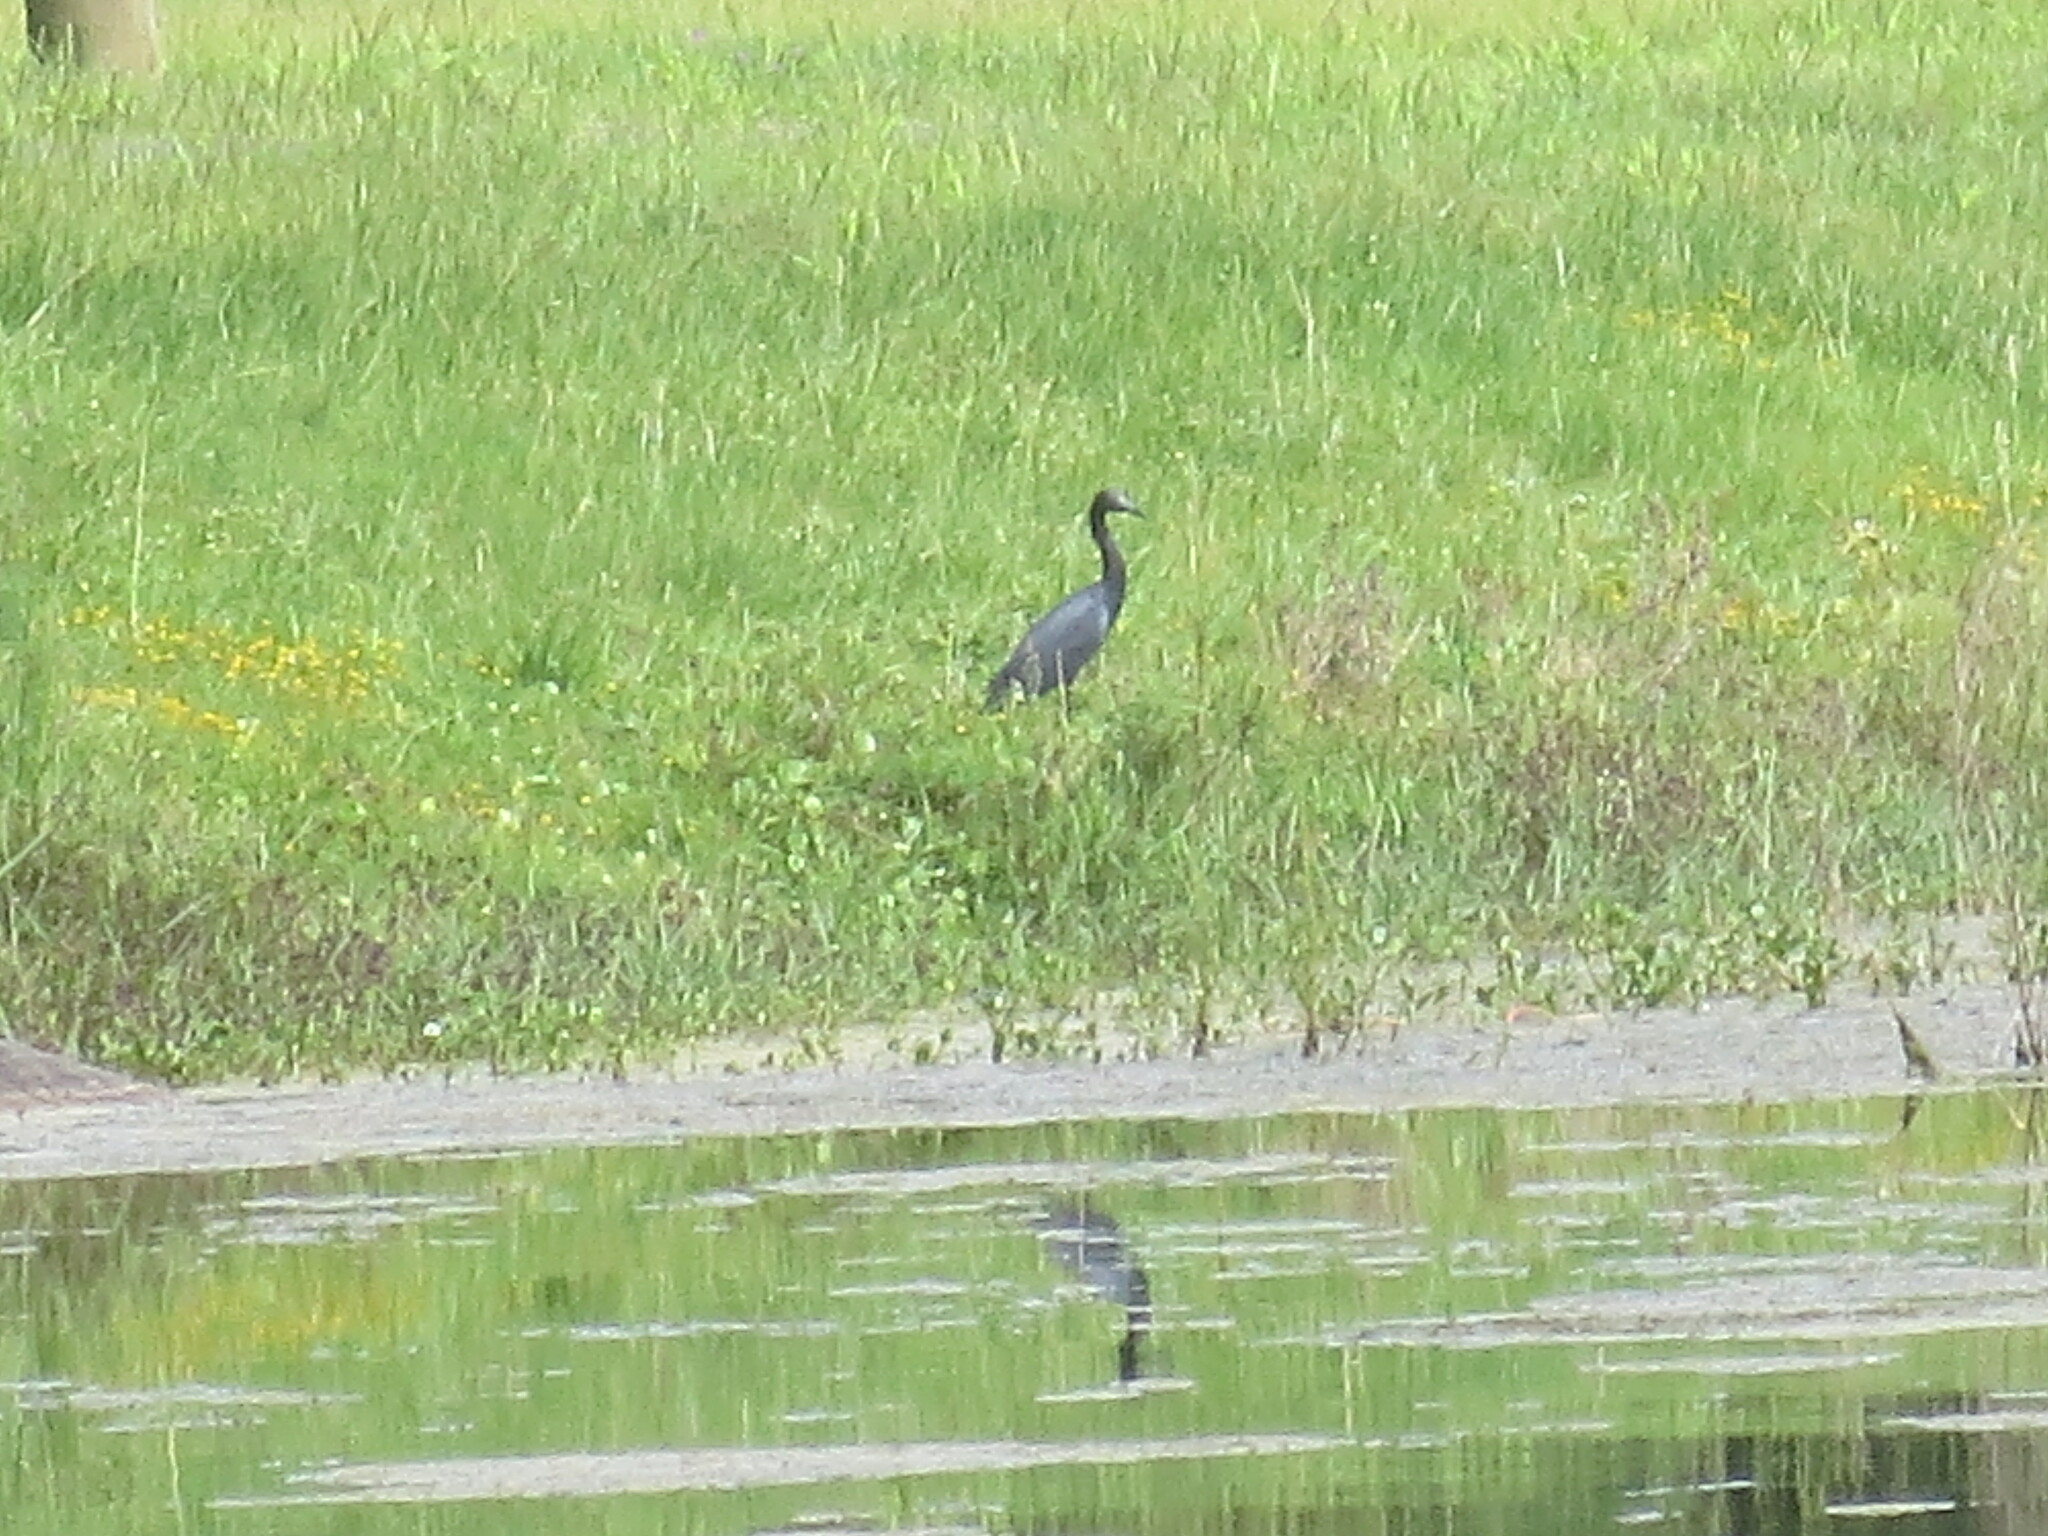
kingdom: Animalia
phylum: Chordata
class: Aves
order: Pelecaniformes
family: Ardeidae
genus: Egretta
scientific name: Egretta caerulea
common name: Little blue heron
